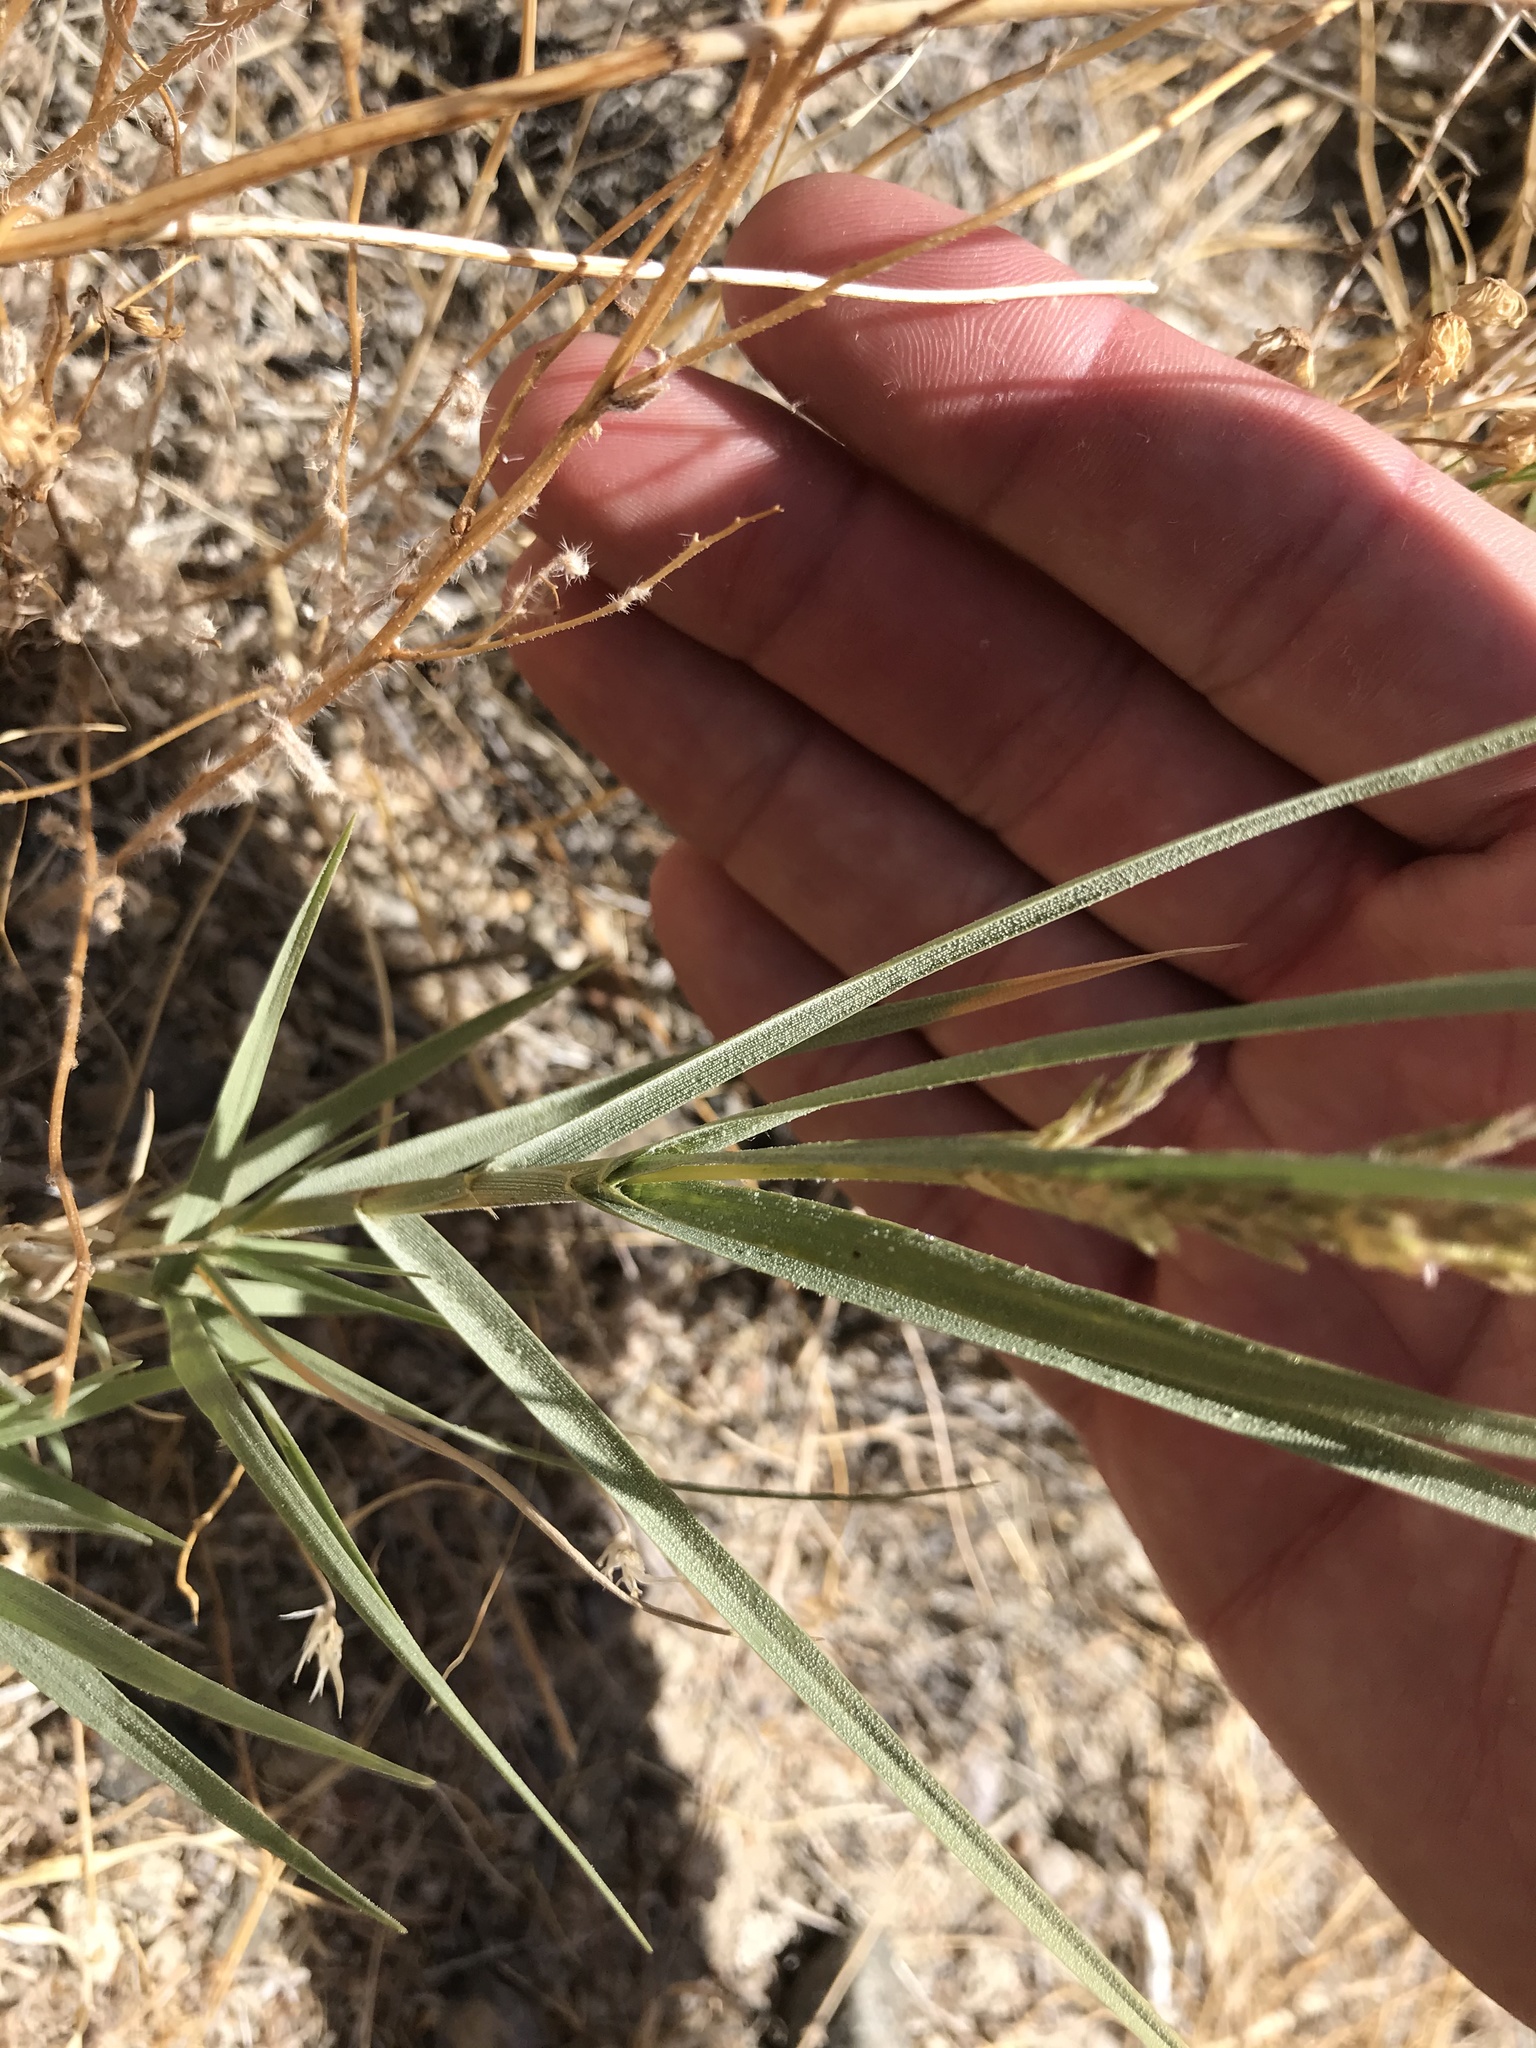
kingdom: Plantae
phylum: Tracheophyta
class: Liliopsida
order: Poales
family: Poaceae
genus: Distichlis
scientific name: Distichlis spicata
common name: Saltgrass
